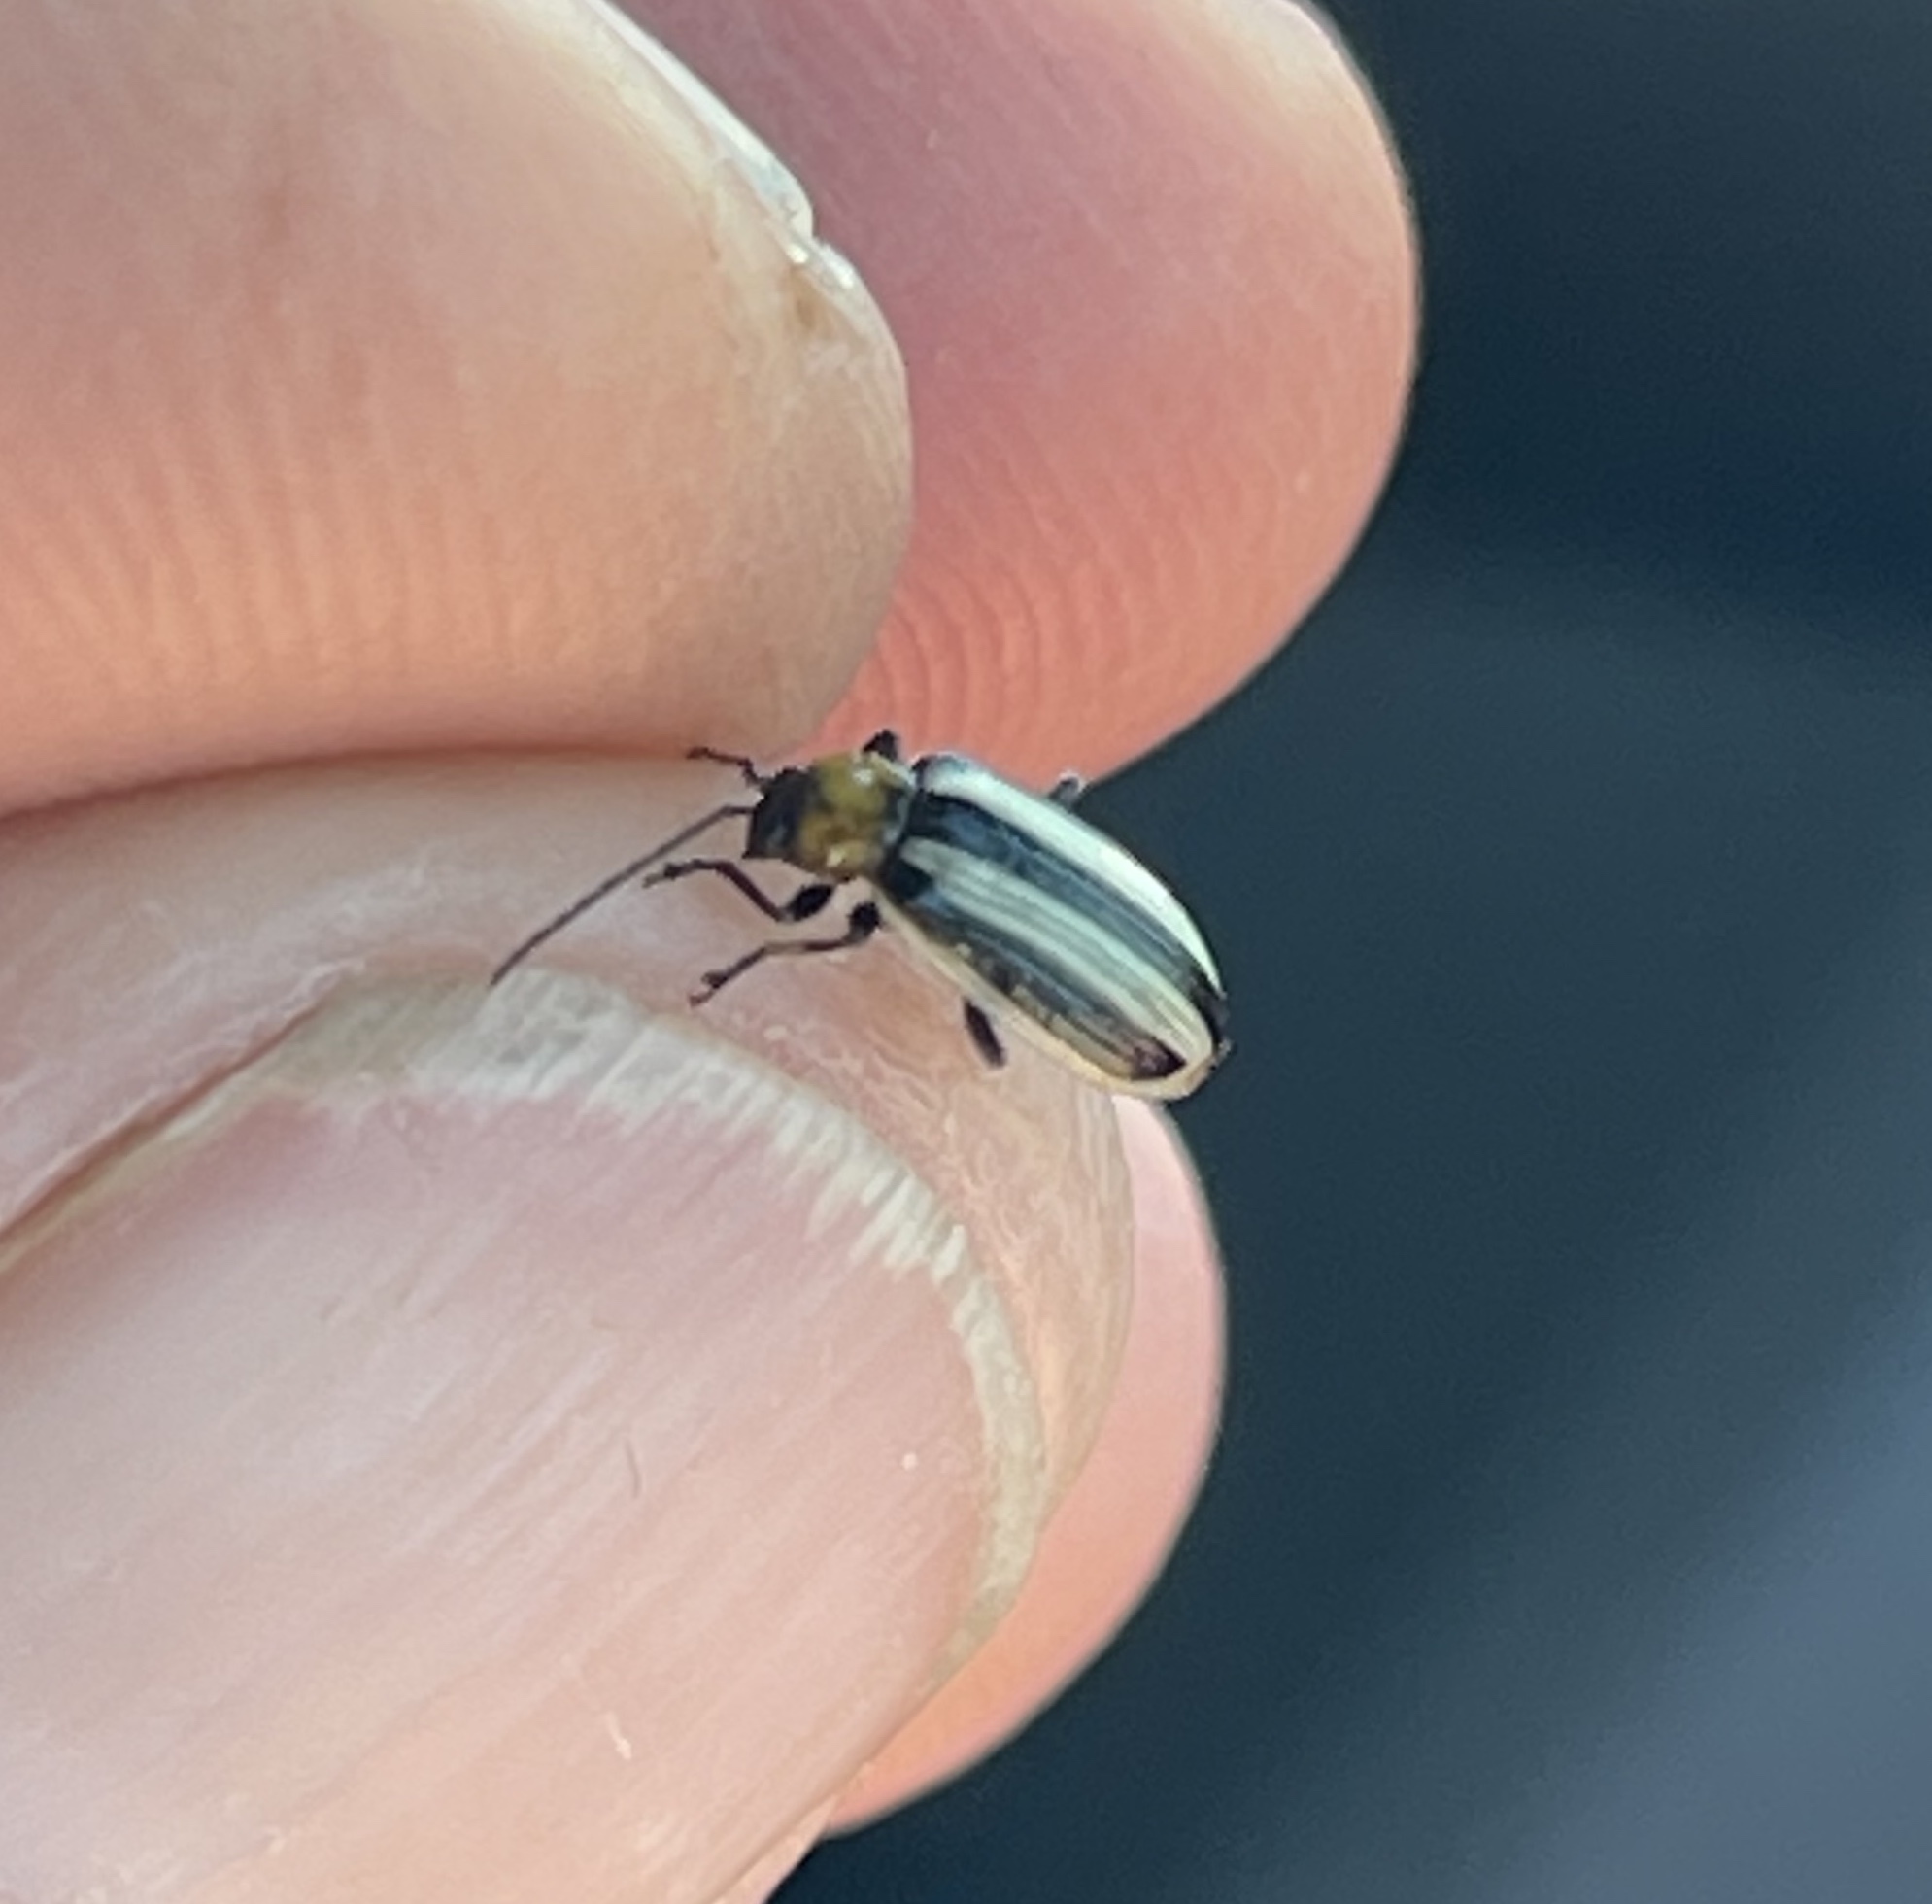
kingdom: Animalia
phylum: Arthropoda
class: Insecta
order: Coleoptera
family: Chrysomelidae
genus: Acalymma
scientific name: Acalymma trivittatum
